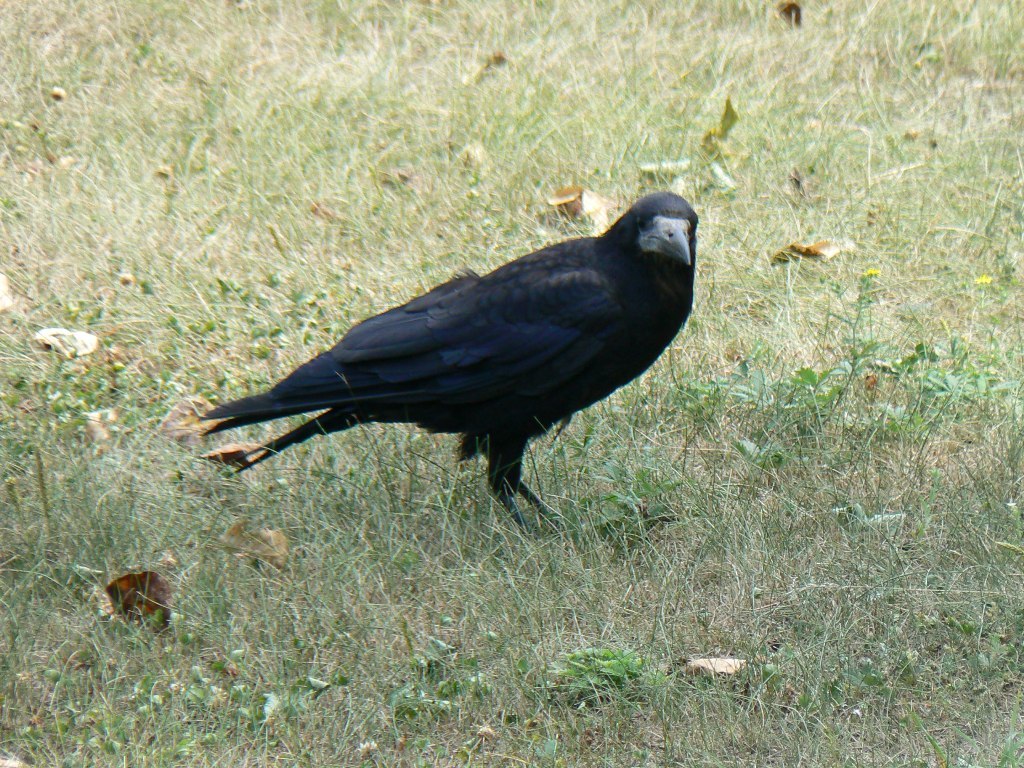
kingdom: Animalia
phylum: Chordata
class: Aves
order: Passeriformes
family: Corvidae
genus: Corvus
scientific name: Corvus frugilegus
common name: Rook
